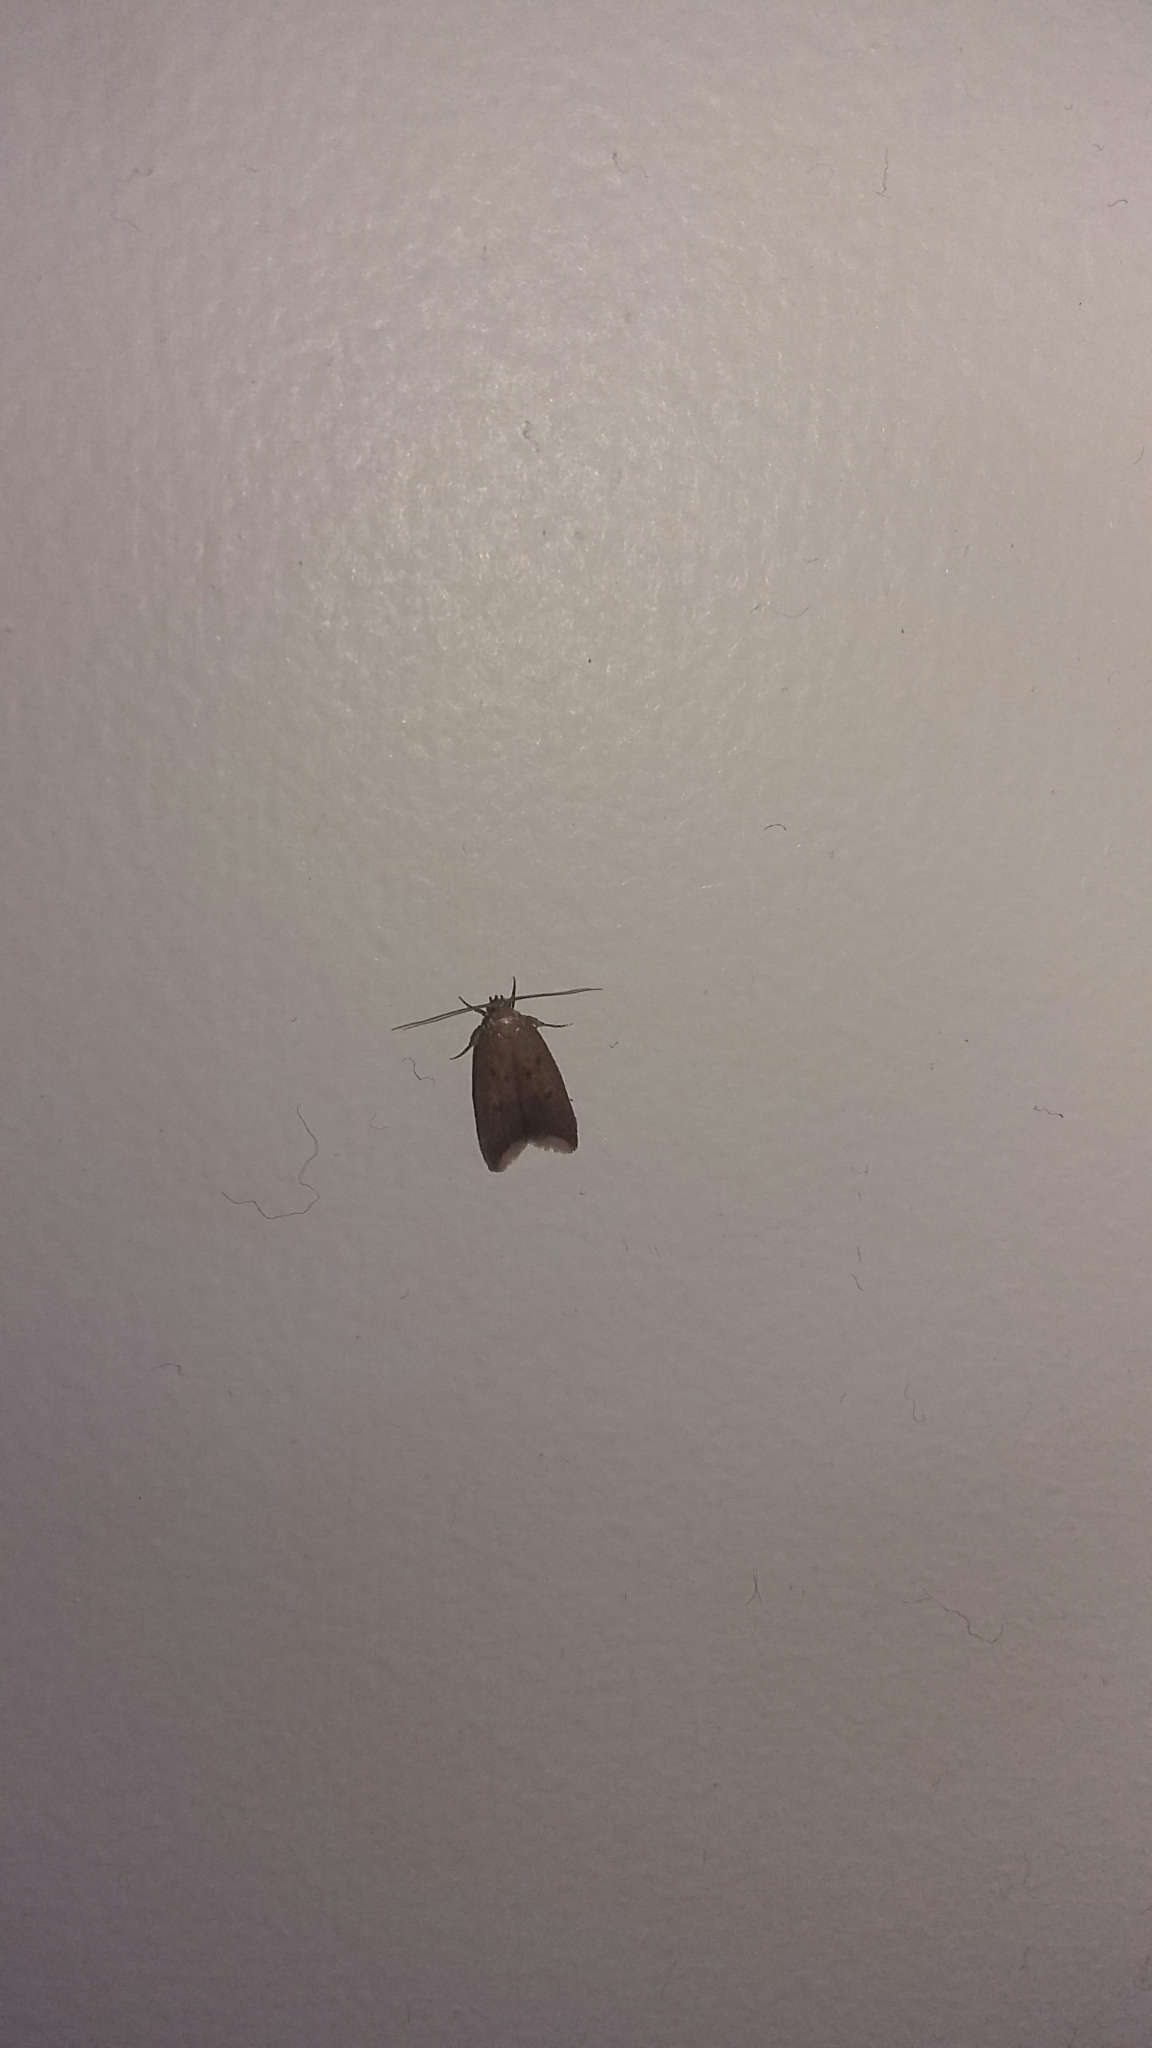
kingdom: Animalia
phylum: Arthropoda
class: Insecta
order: Lepidoptera
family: Oecophoridae
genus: Tachystola
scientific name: Tachystola acroxantha
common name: Ruddy streak
